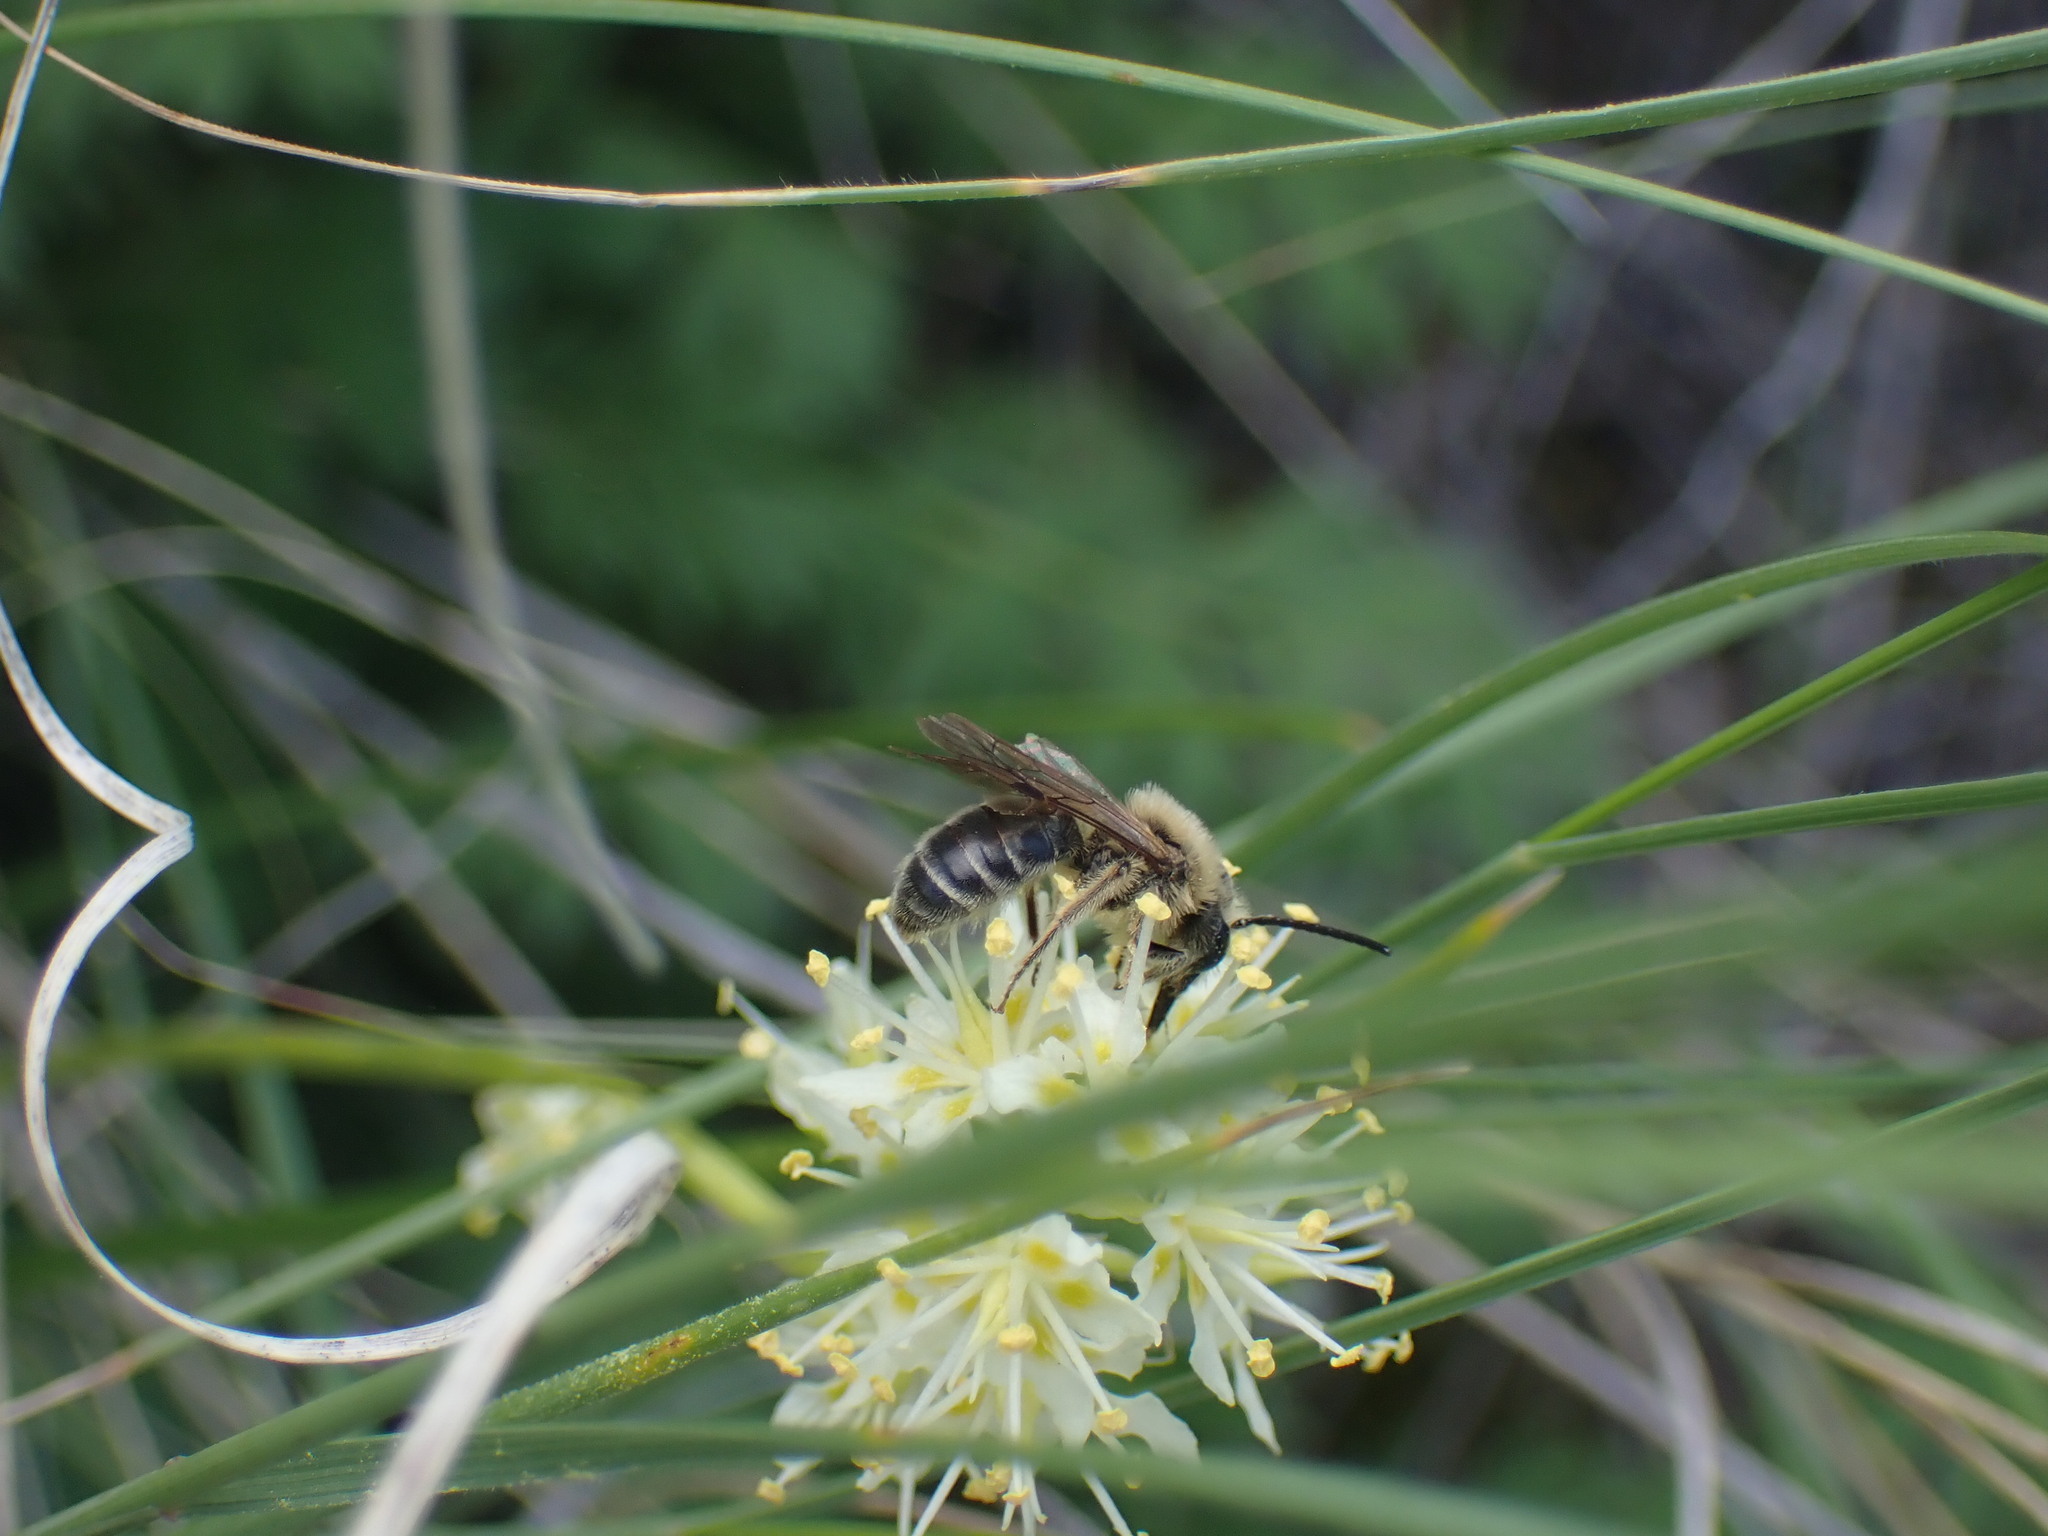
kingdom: Plantae
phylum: Tracheophyta
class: Liliopsida
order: Liliales
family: Melanthiaceae
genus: Toxicoscordion
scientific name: Toxicoscordion venenosum
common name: Meadow death camas
